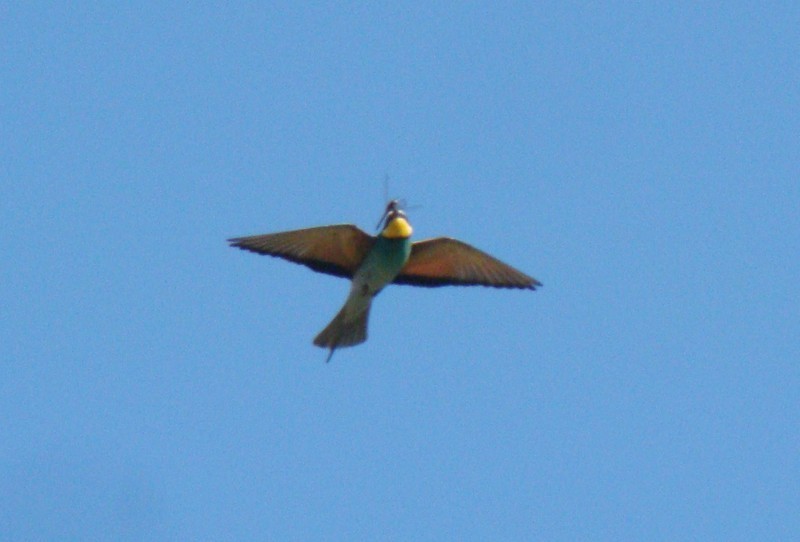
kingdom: Animalia
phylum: Chordata
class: Aves
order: Coraciiformes
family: Meropidae
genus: Merops
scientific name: Merops apiaster
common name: European bee-eater
